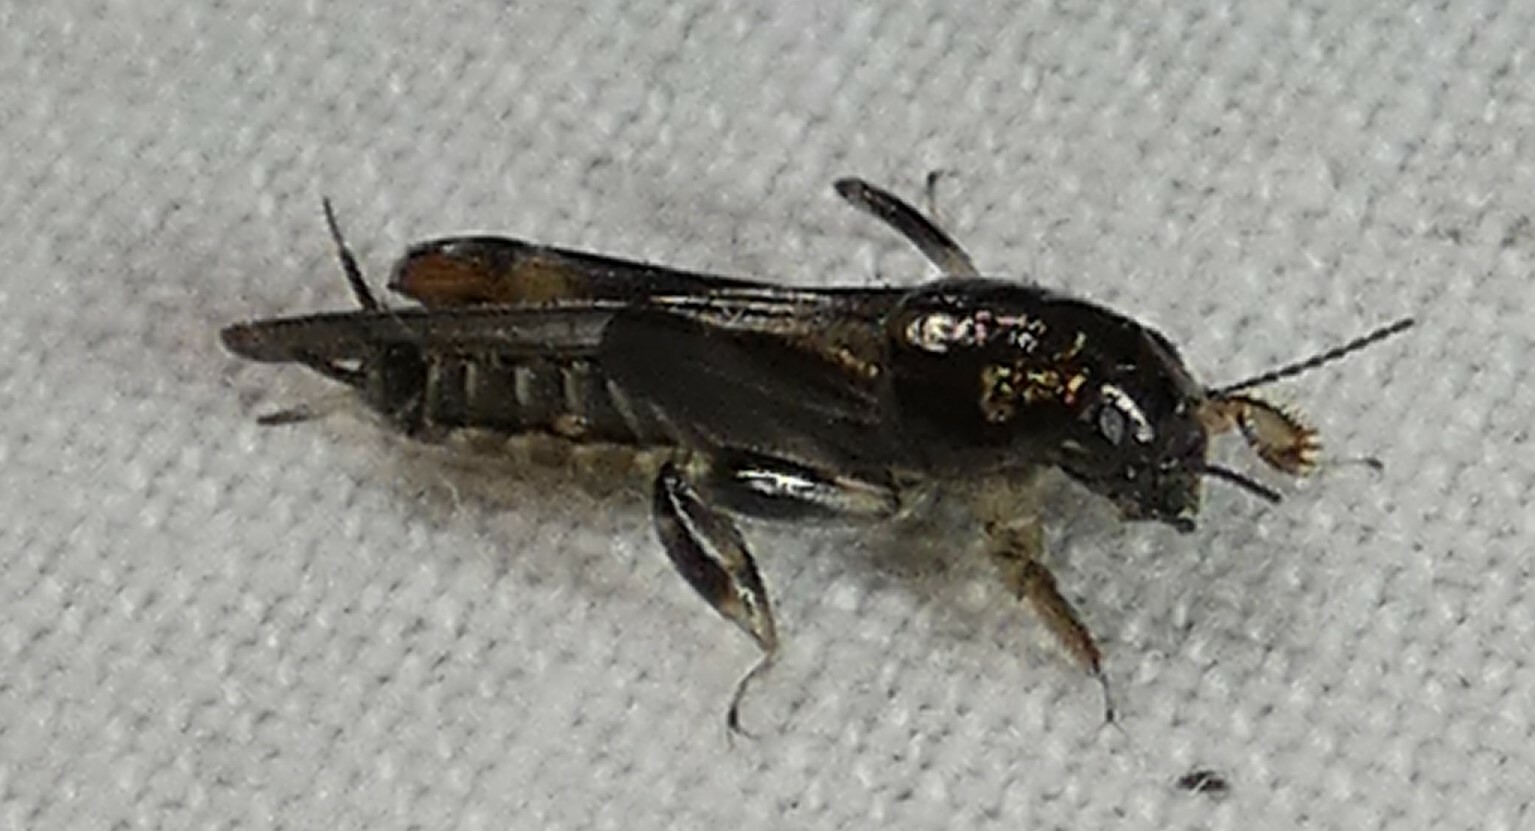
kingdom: Animalia
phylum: Arthropoda
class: Insecta
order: Orthoptera
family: Tridactylidae
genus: Neotridactylus
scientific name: Neotridactylus apicialis
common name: Larger pygmy locust
